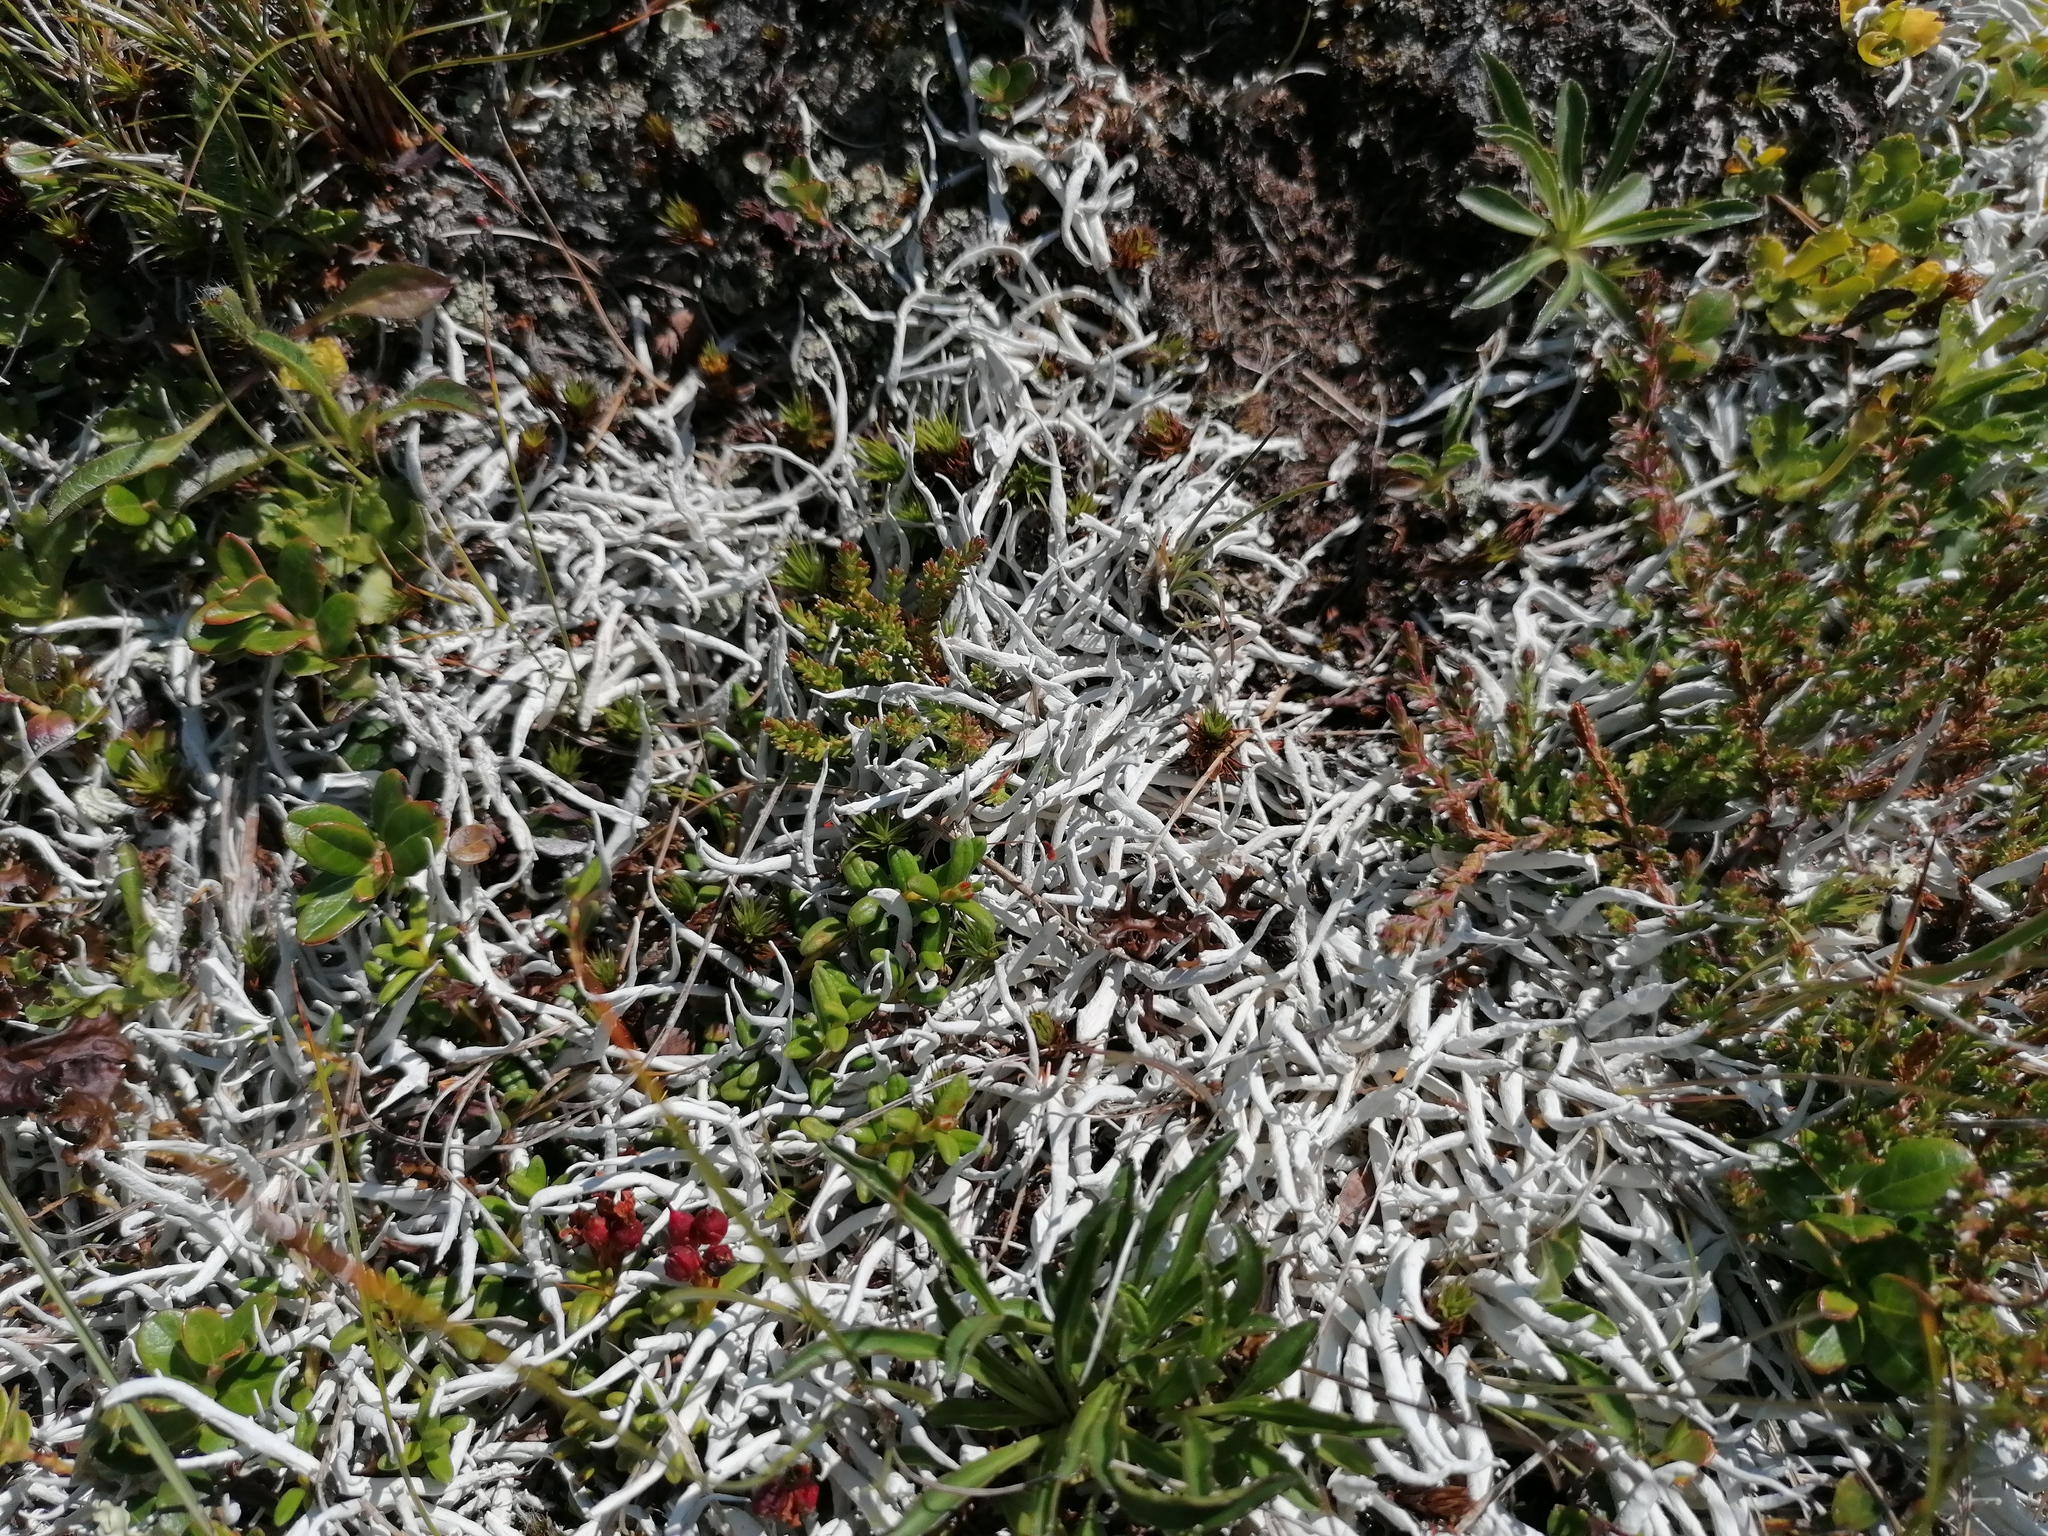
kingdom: Fungi
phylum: Ascomycota
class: Lecanoromycetes
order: Pertusariales
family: Icmadophilaceae
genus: Thamnolia
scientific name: Thamnolia vermicularis
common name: Whiteworm lichen
